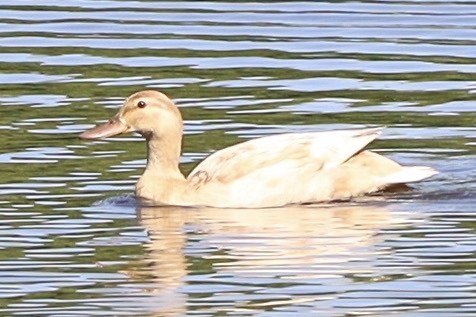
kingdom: Animalia
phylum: Chordata
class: Aves
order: Anseriformes
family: Anatidae
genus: Anas
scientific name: Anas platyrhynchos
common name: Mallard
